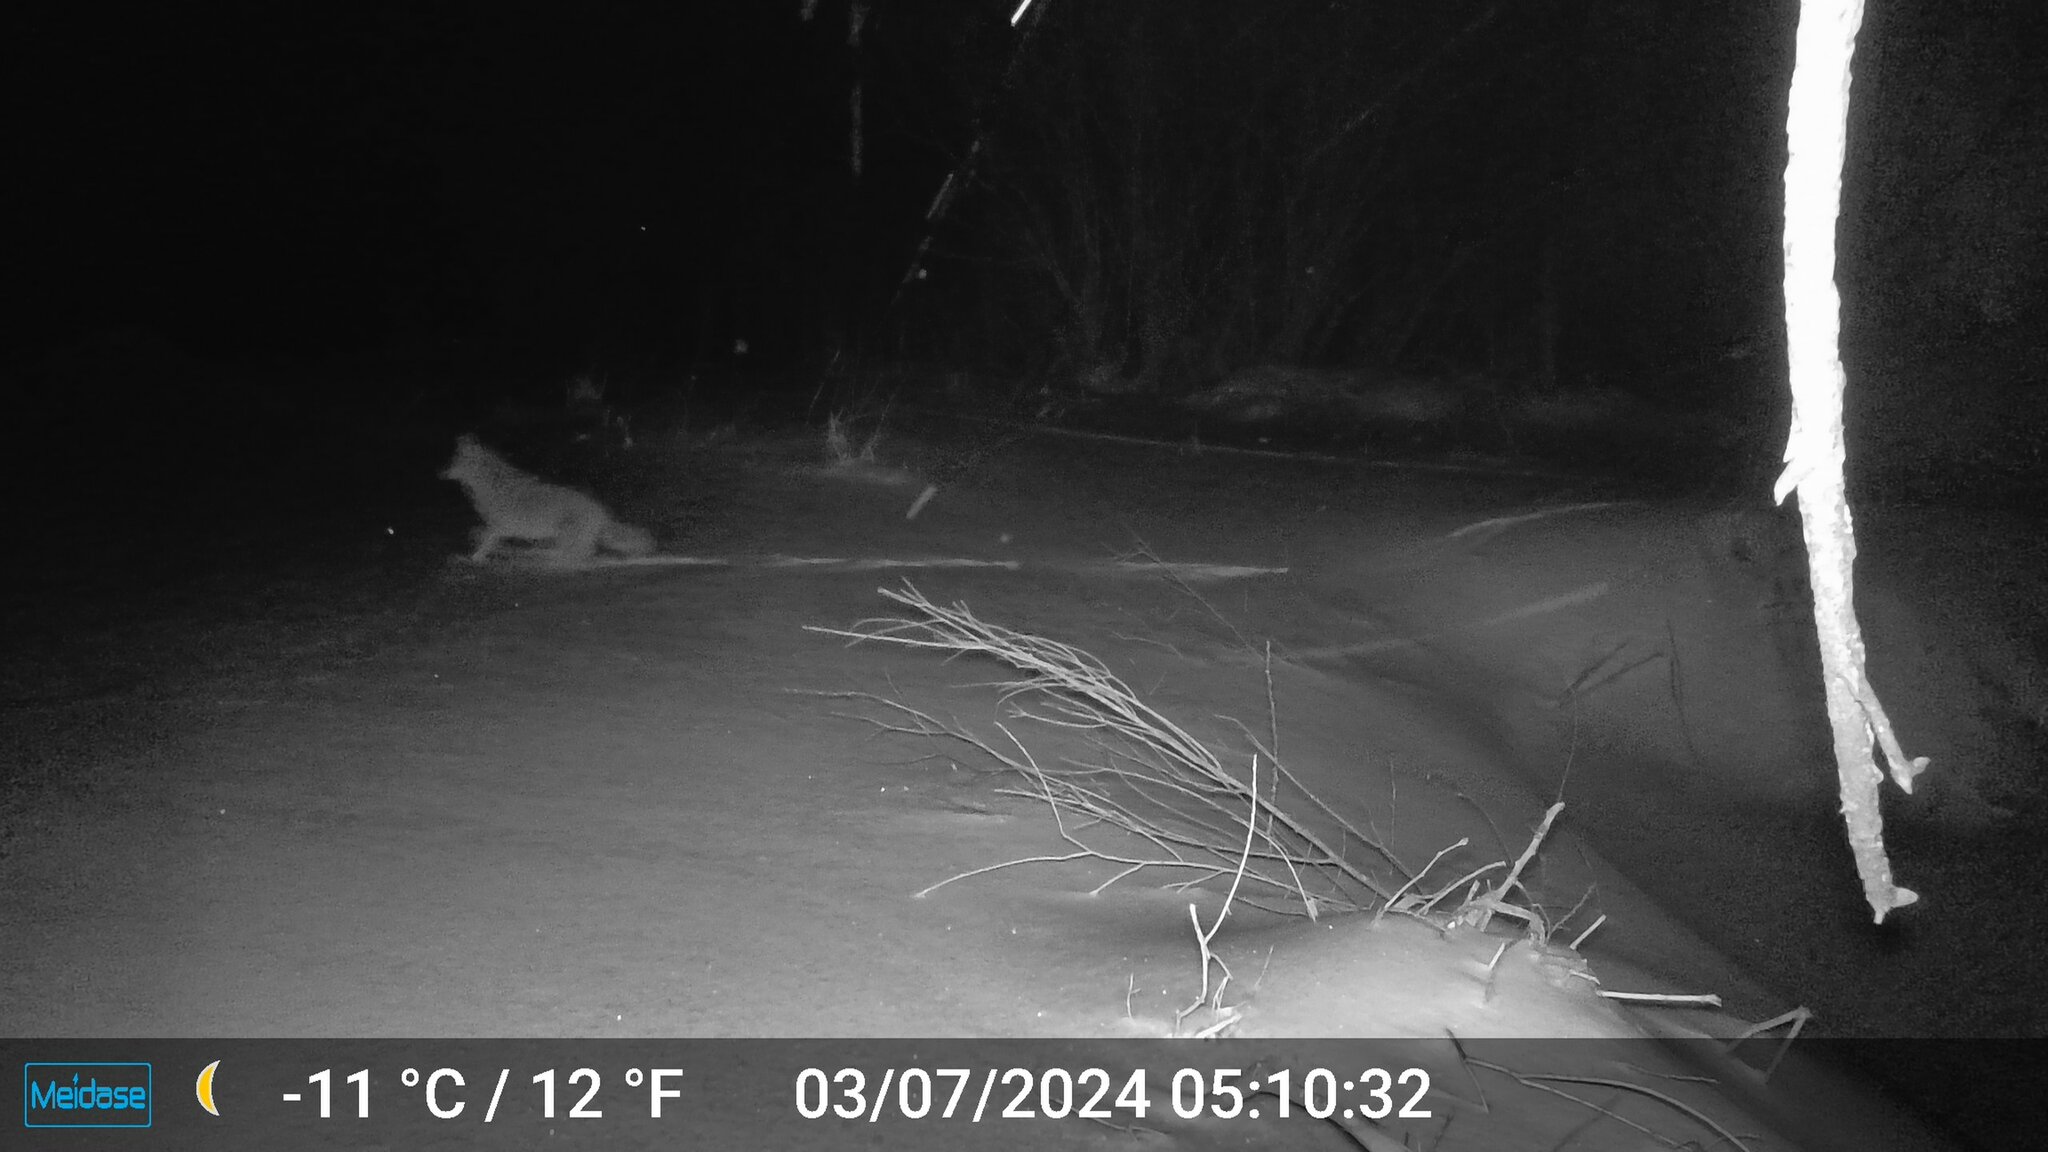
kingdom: Animalia
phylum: Chordata
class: Mammalia
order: Carnivora
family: Canidae
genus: Canis
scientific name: Canis latrans
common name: Coyote
